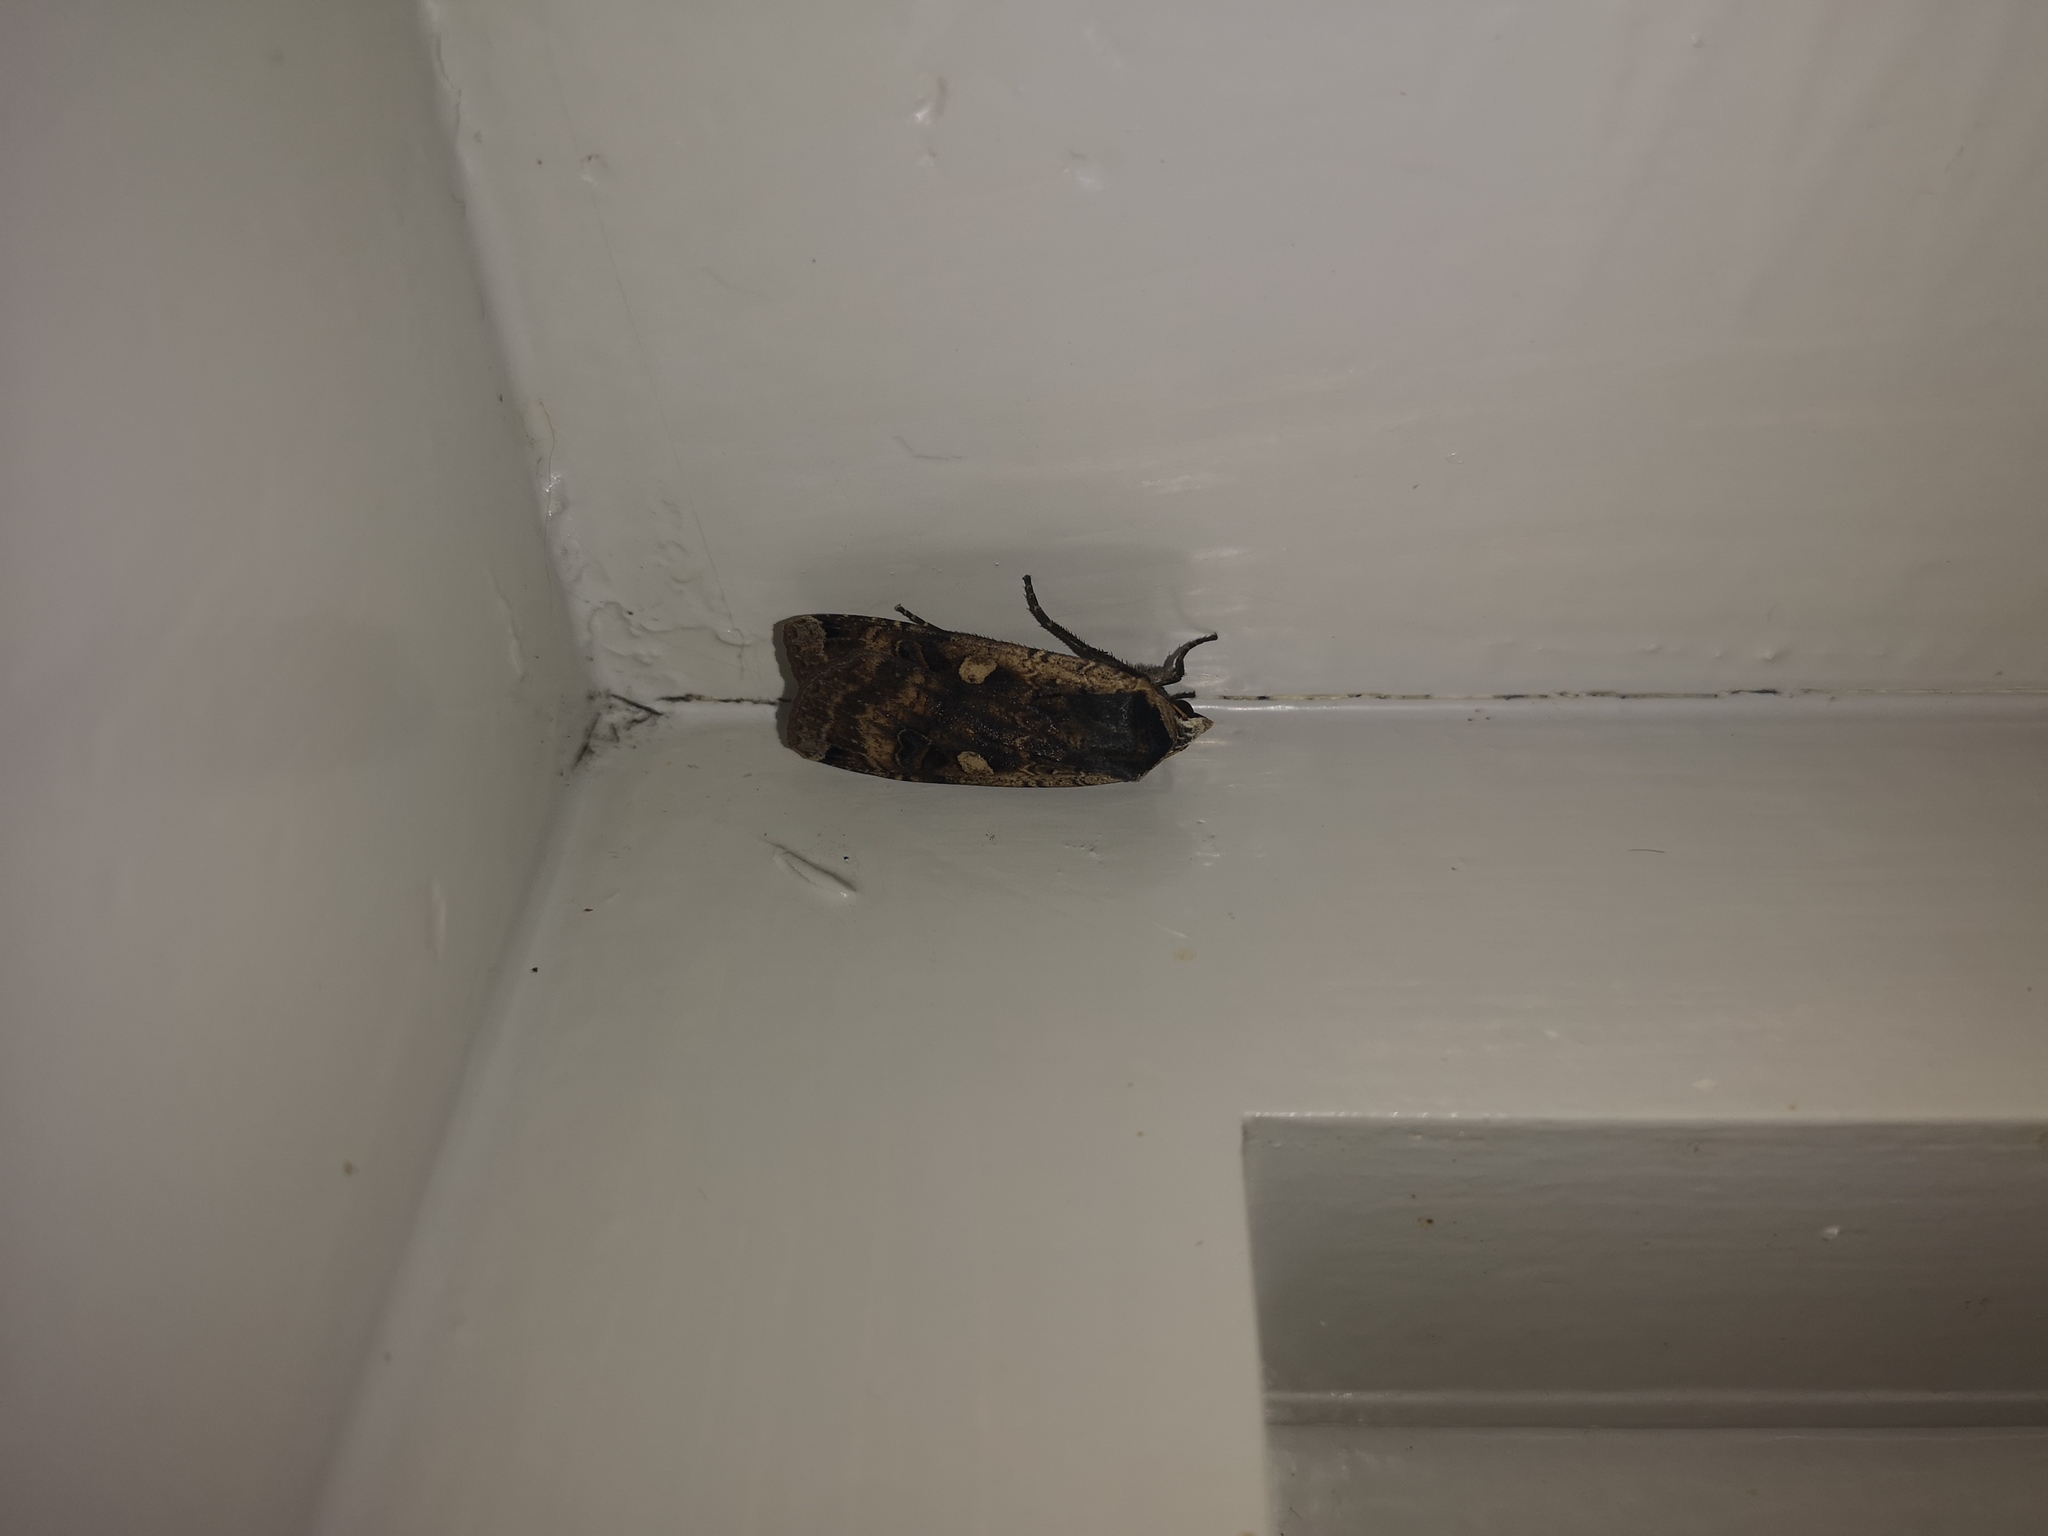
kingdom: Animalia
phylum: Arthropoda
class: Insecta
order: Lepidoptera
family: Noctuidae
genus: Noctua
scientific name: Noctua pronuba
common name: Large yellow underwing
